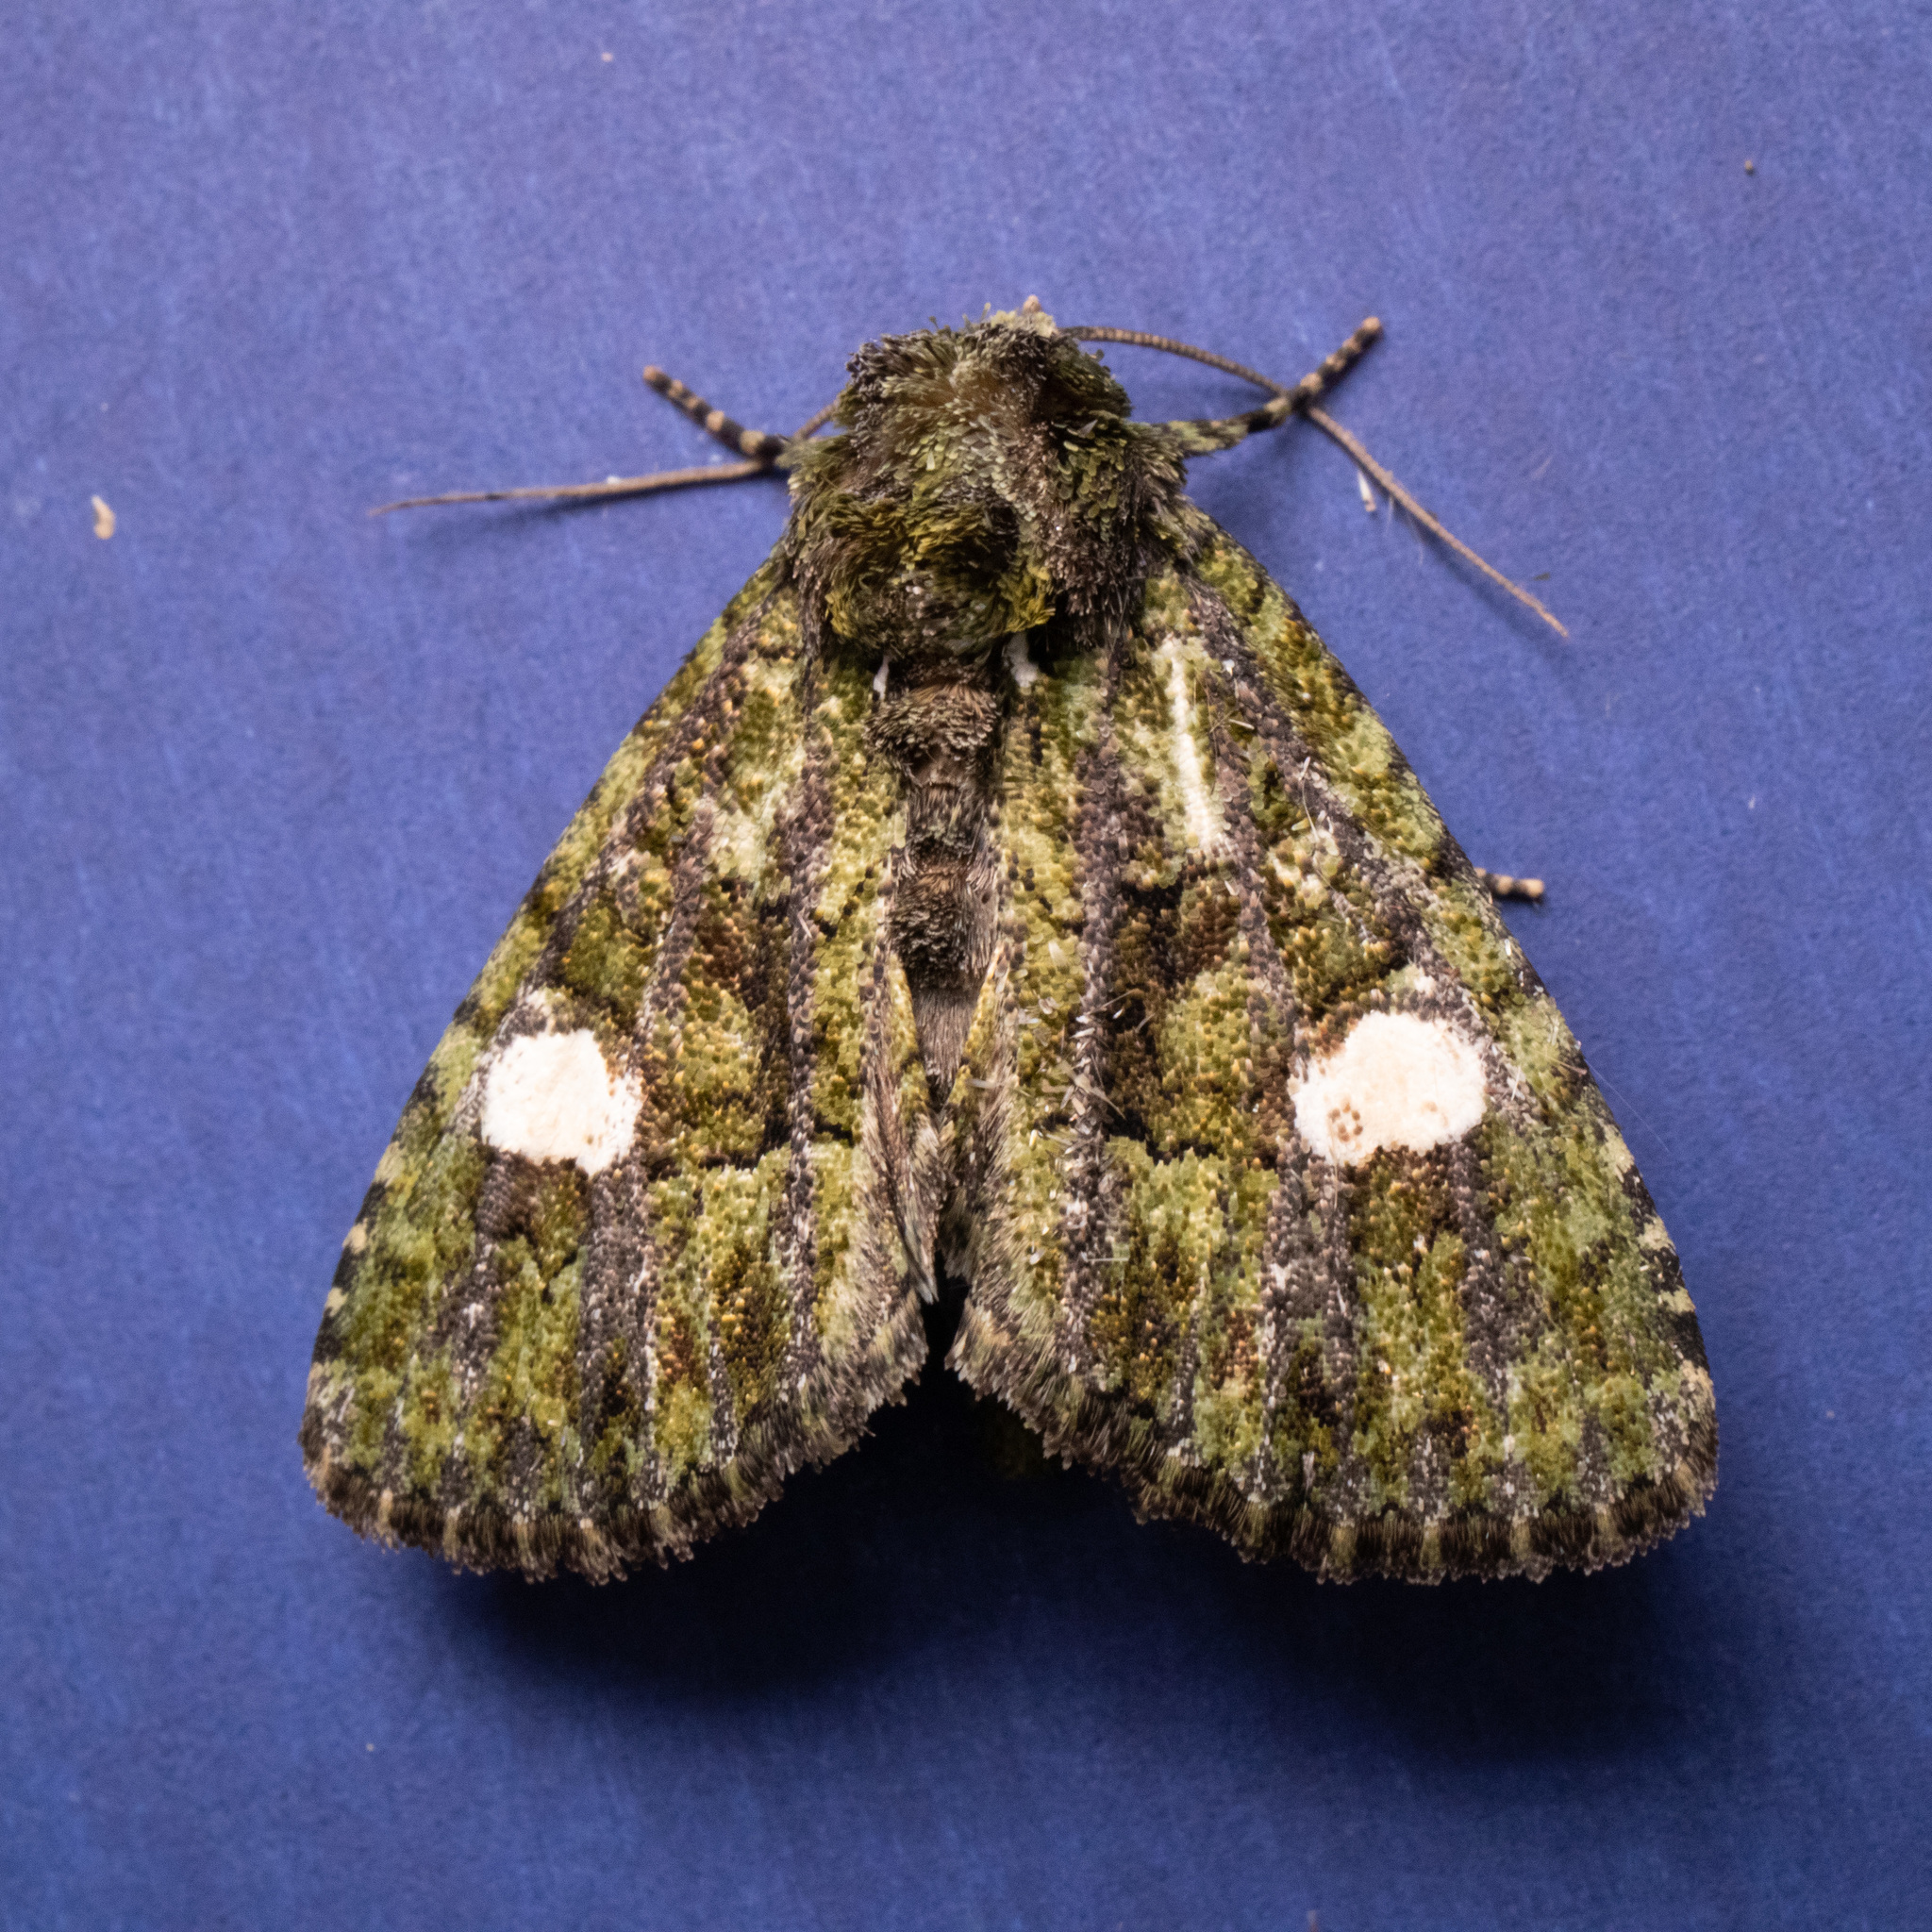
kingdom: Animalia
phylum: Arthropoda
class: Insecta
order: Lepidoptera
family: Noctuidae
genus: Phosphila
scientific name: Phosphila miselioides
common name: Spotted phosphila moth
